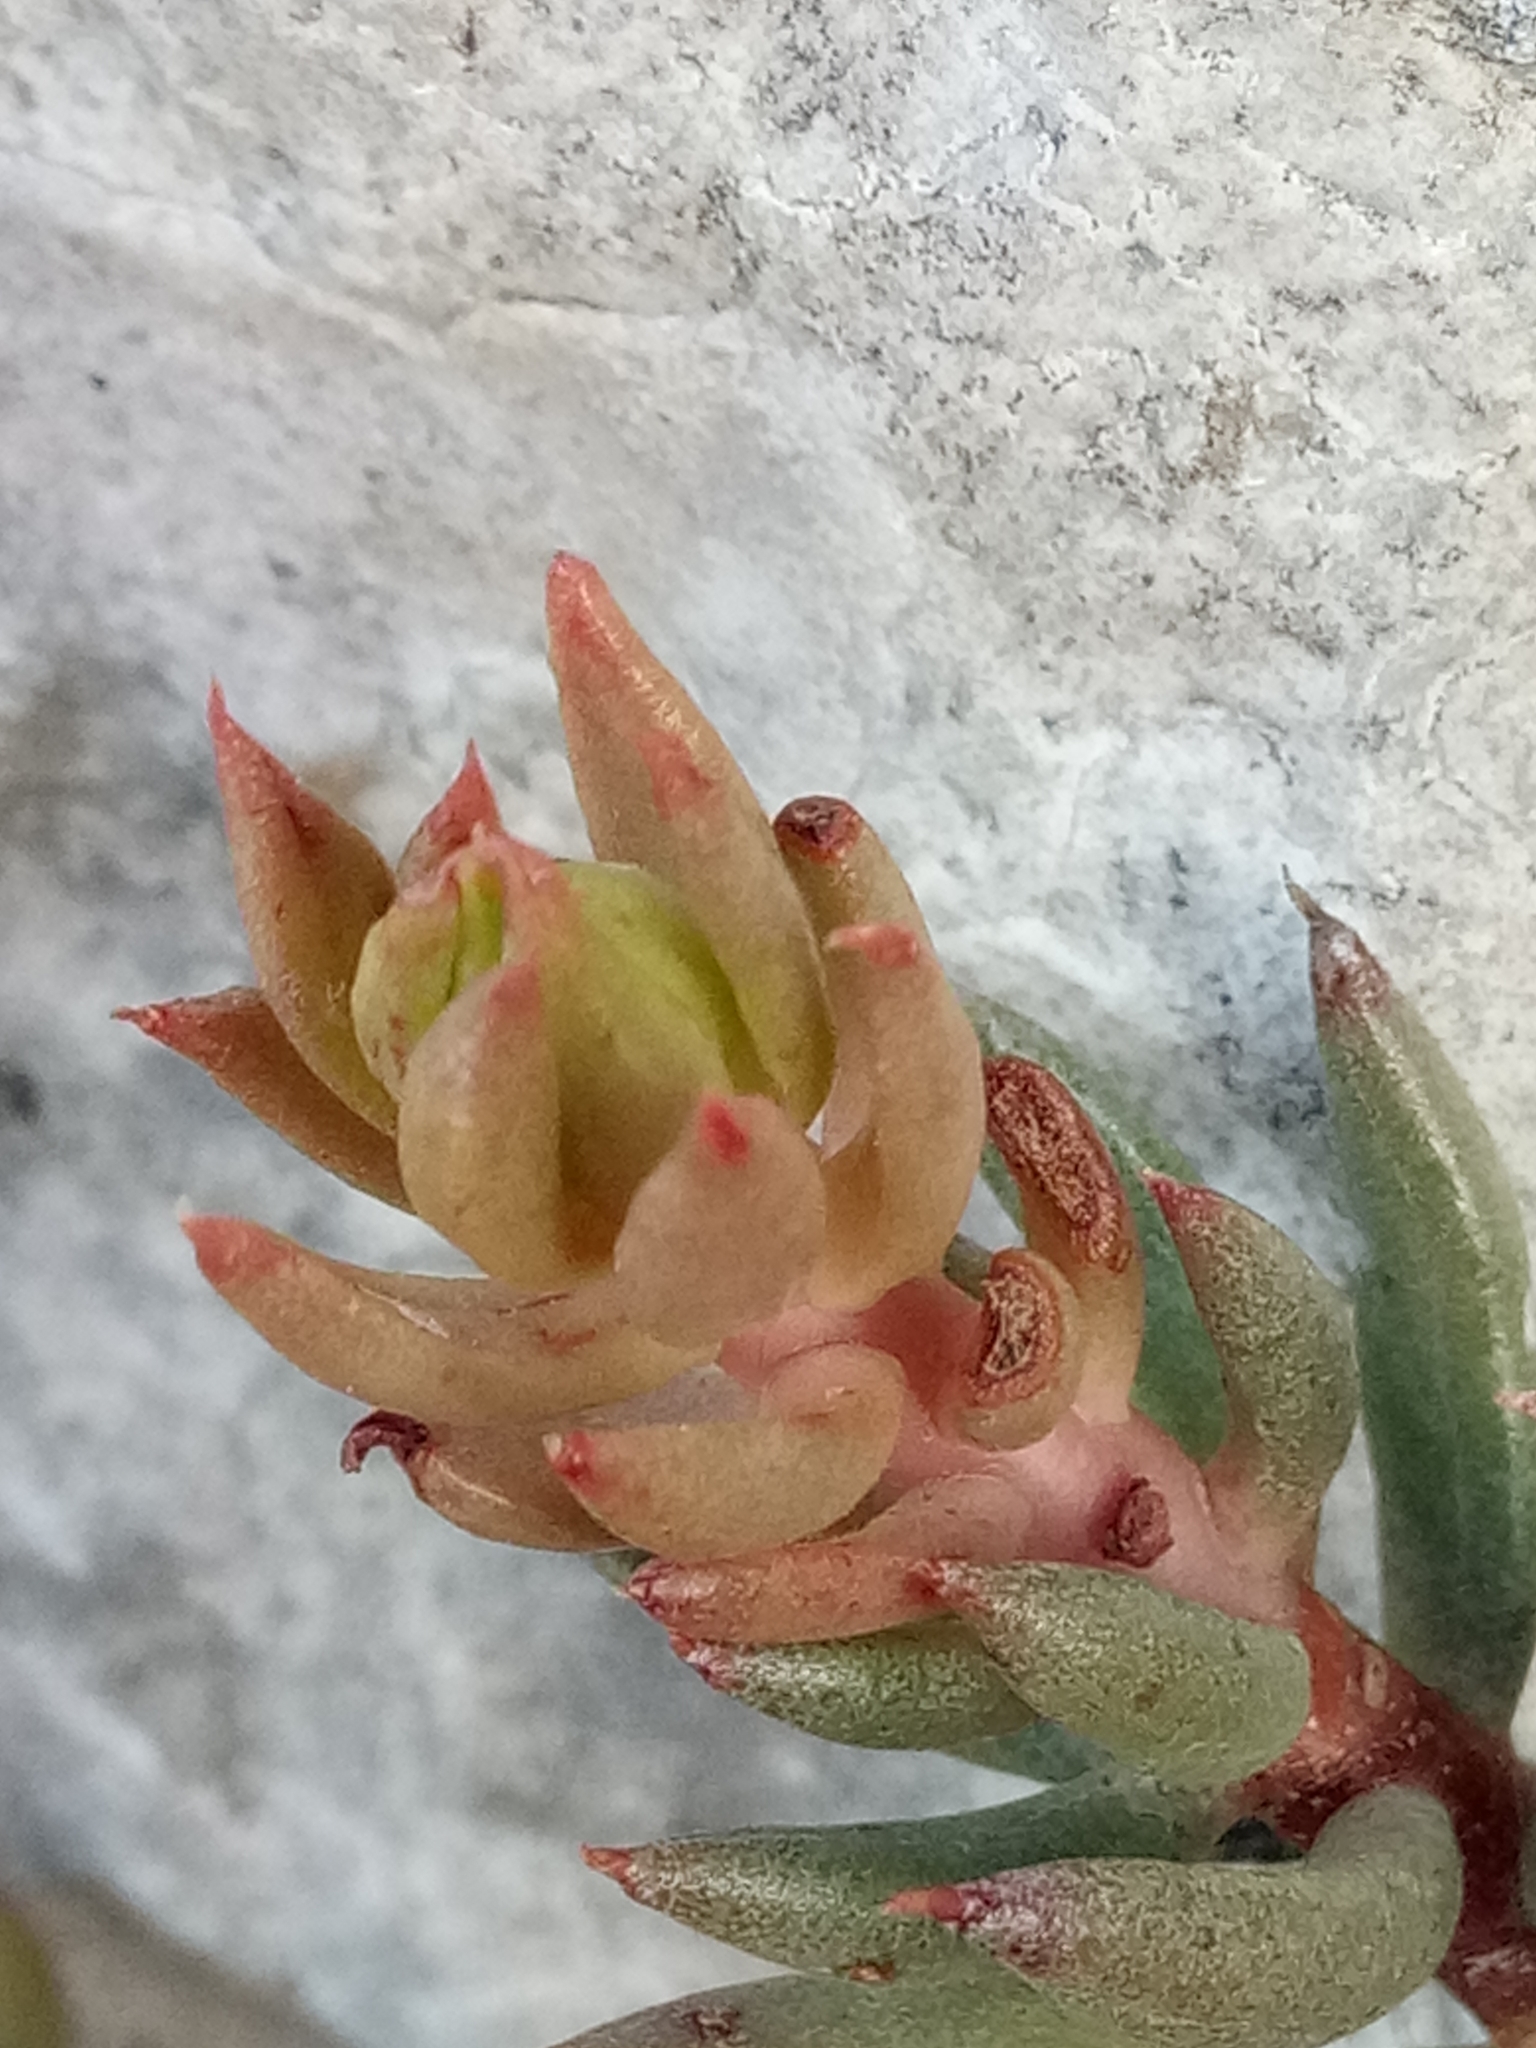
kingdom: Plantae
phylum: Tracheophyta
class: Magnoliopsida
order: Saxifragales
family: Crassulaceae
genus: Petrosedum
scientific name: Petrosedum sediforme
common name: Pale stonecrop
